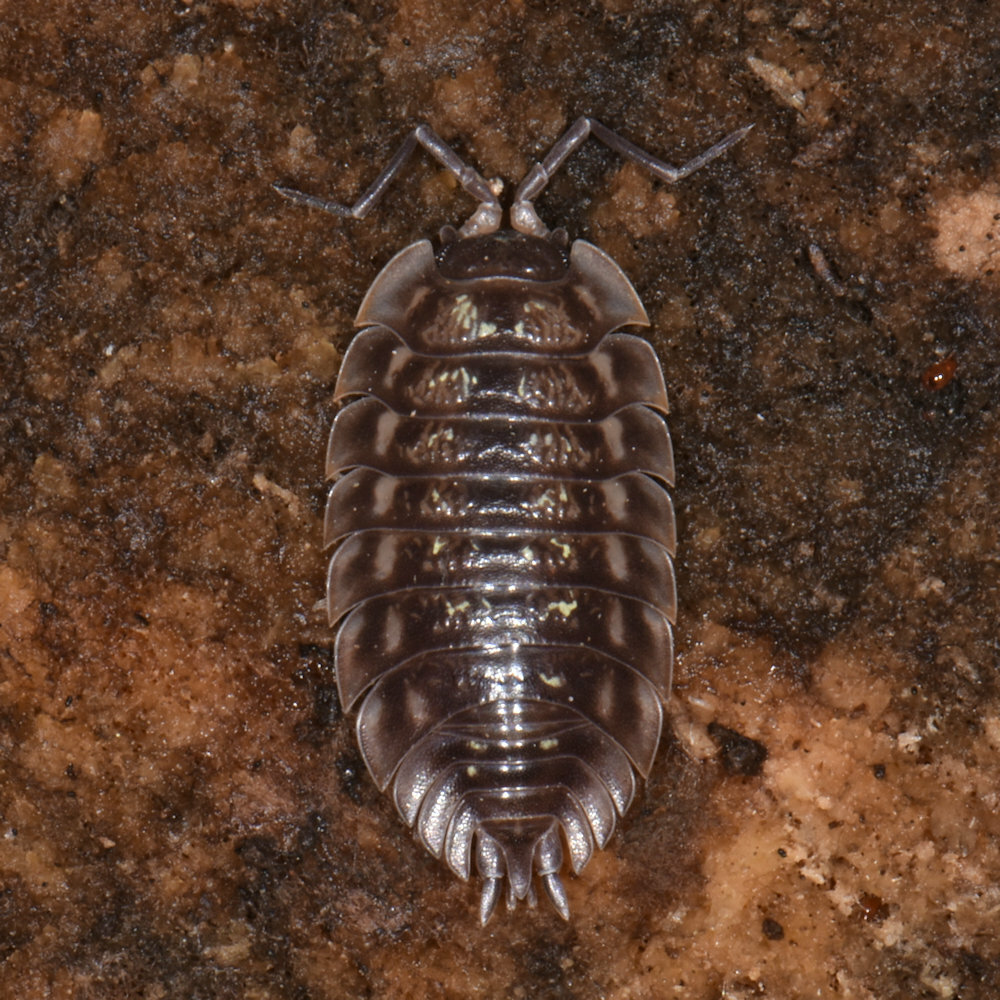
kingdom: Animalia
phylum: Arthropoda
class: Malacostraca
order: Isopoda
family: Oniscidae
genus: Oniscus
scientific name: Oniscus asellus
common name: Common shiny woodlouse
